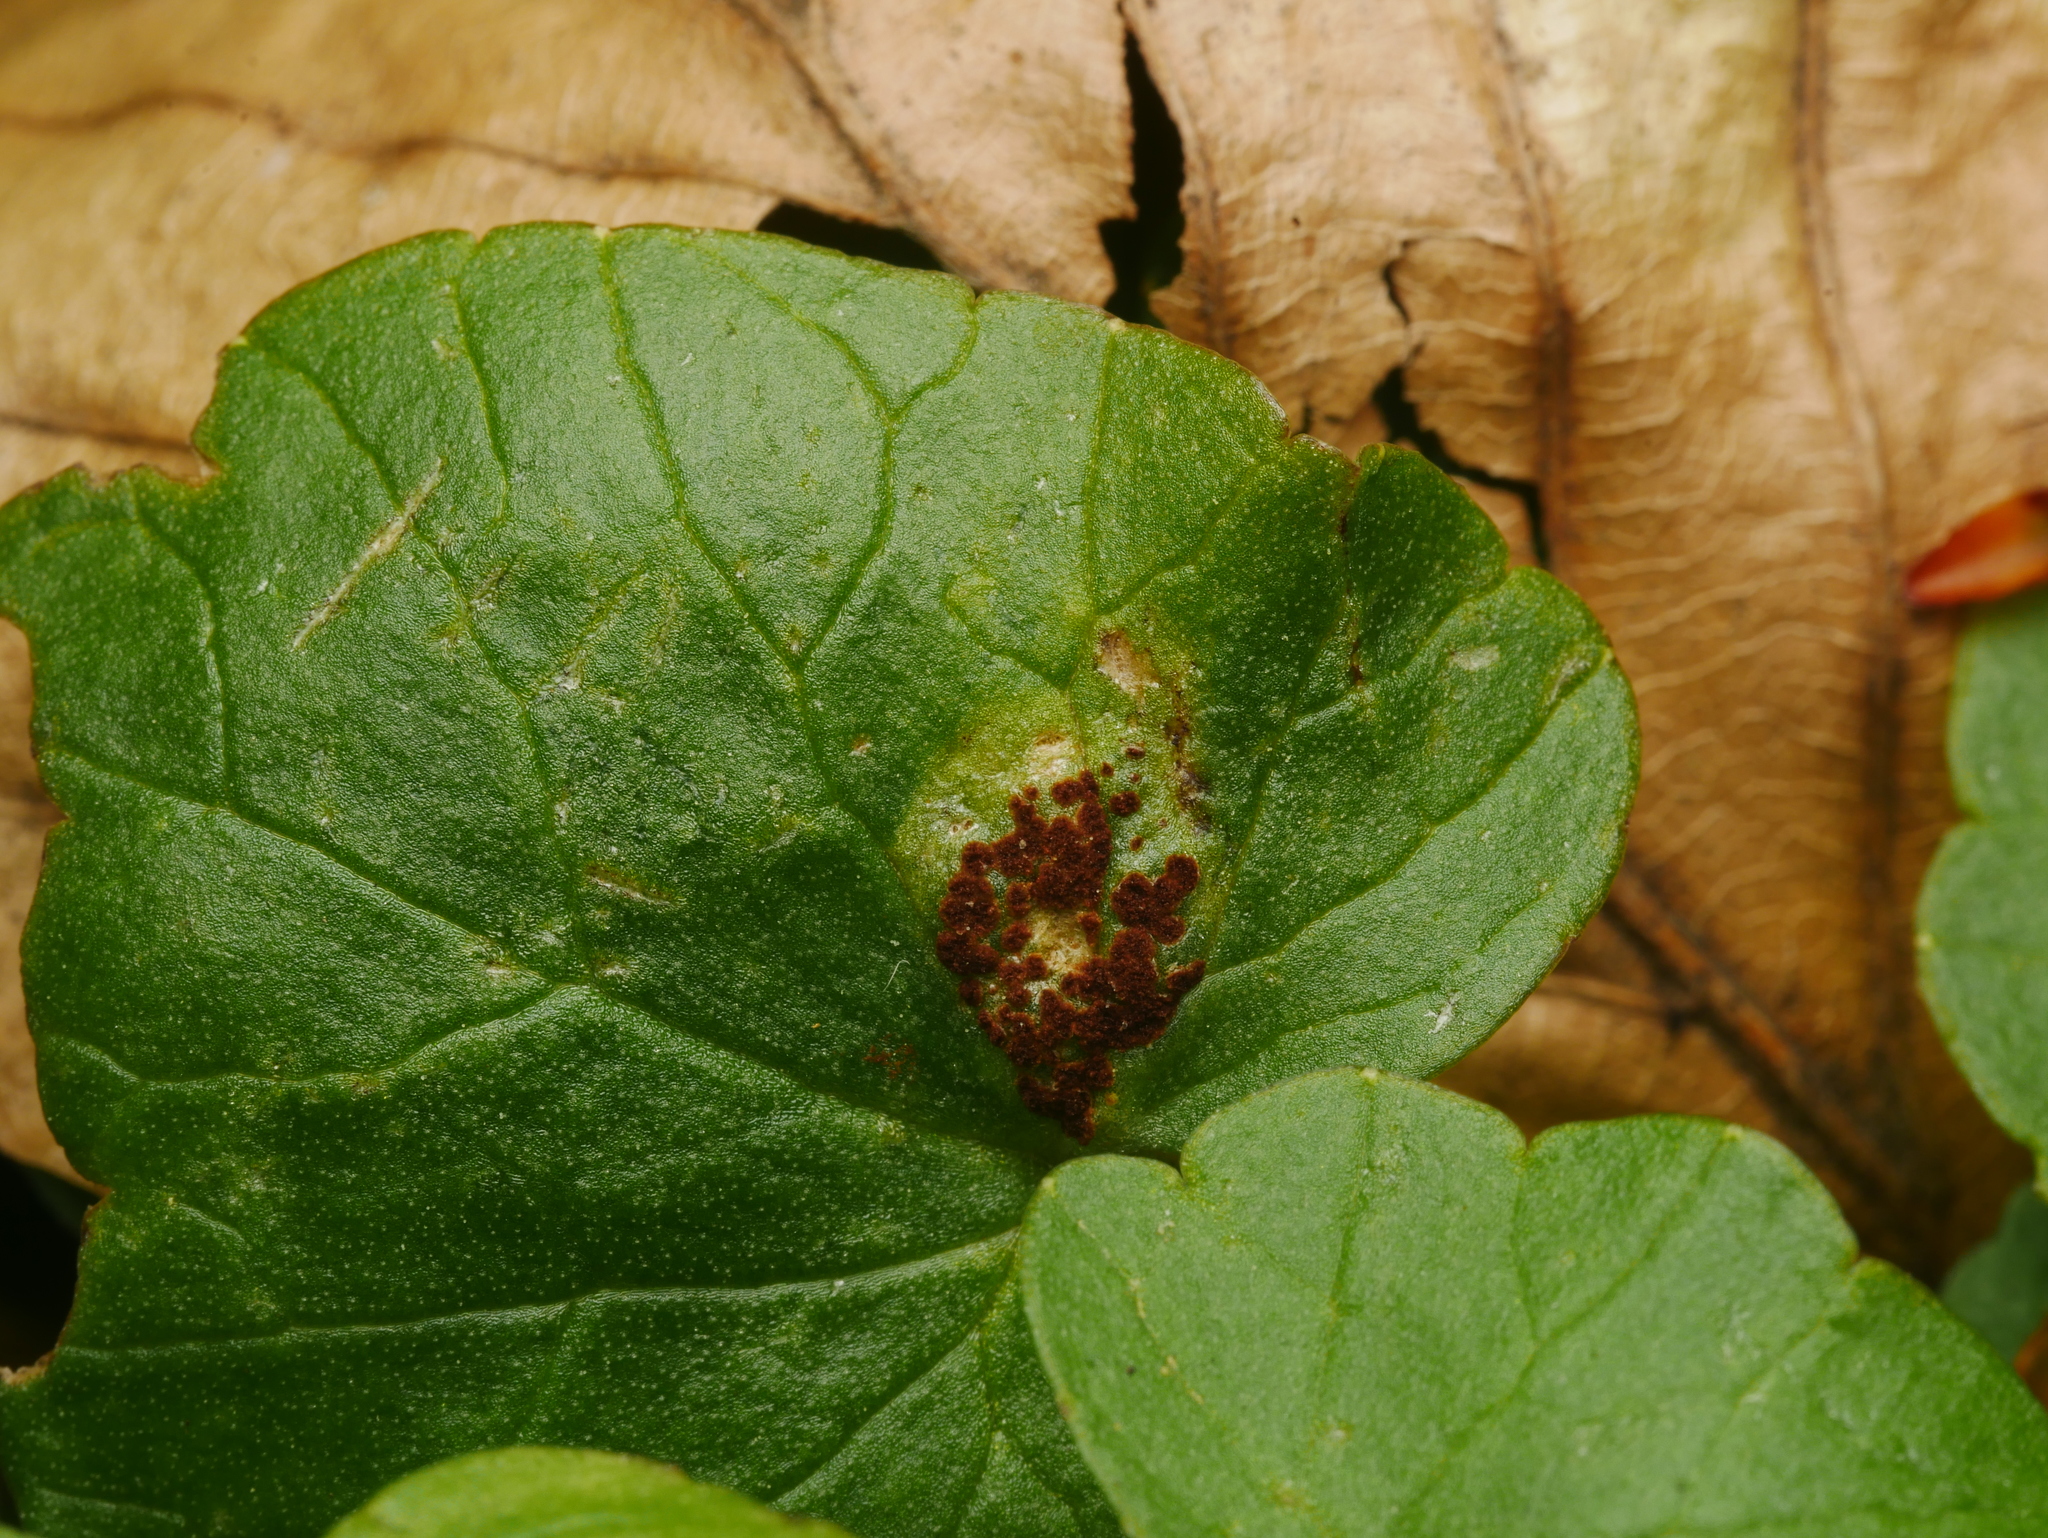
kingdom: Fungi
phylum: Basidiomycota
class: Pucciniomycetes
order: Pucciniales
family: Pucciniaceae
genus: Uromyces
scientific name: Uromyces ficariae
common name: Bitter chocolate rust
